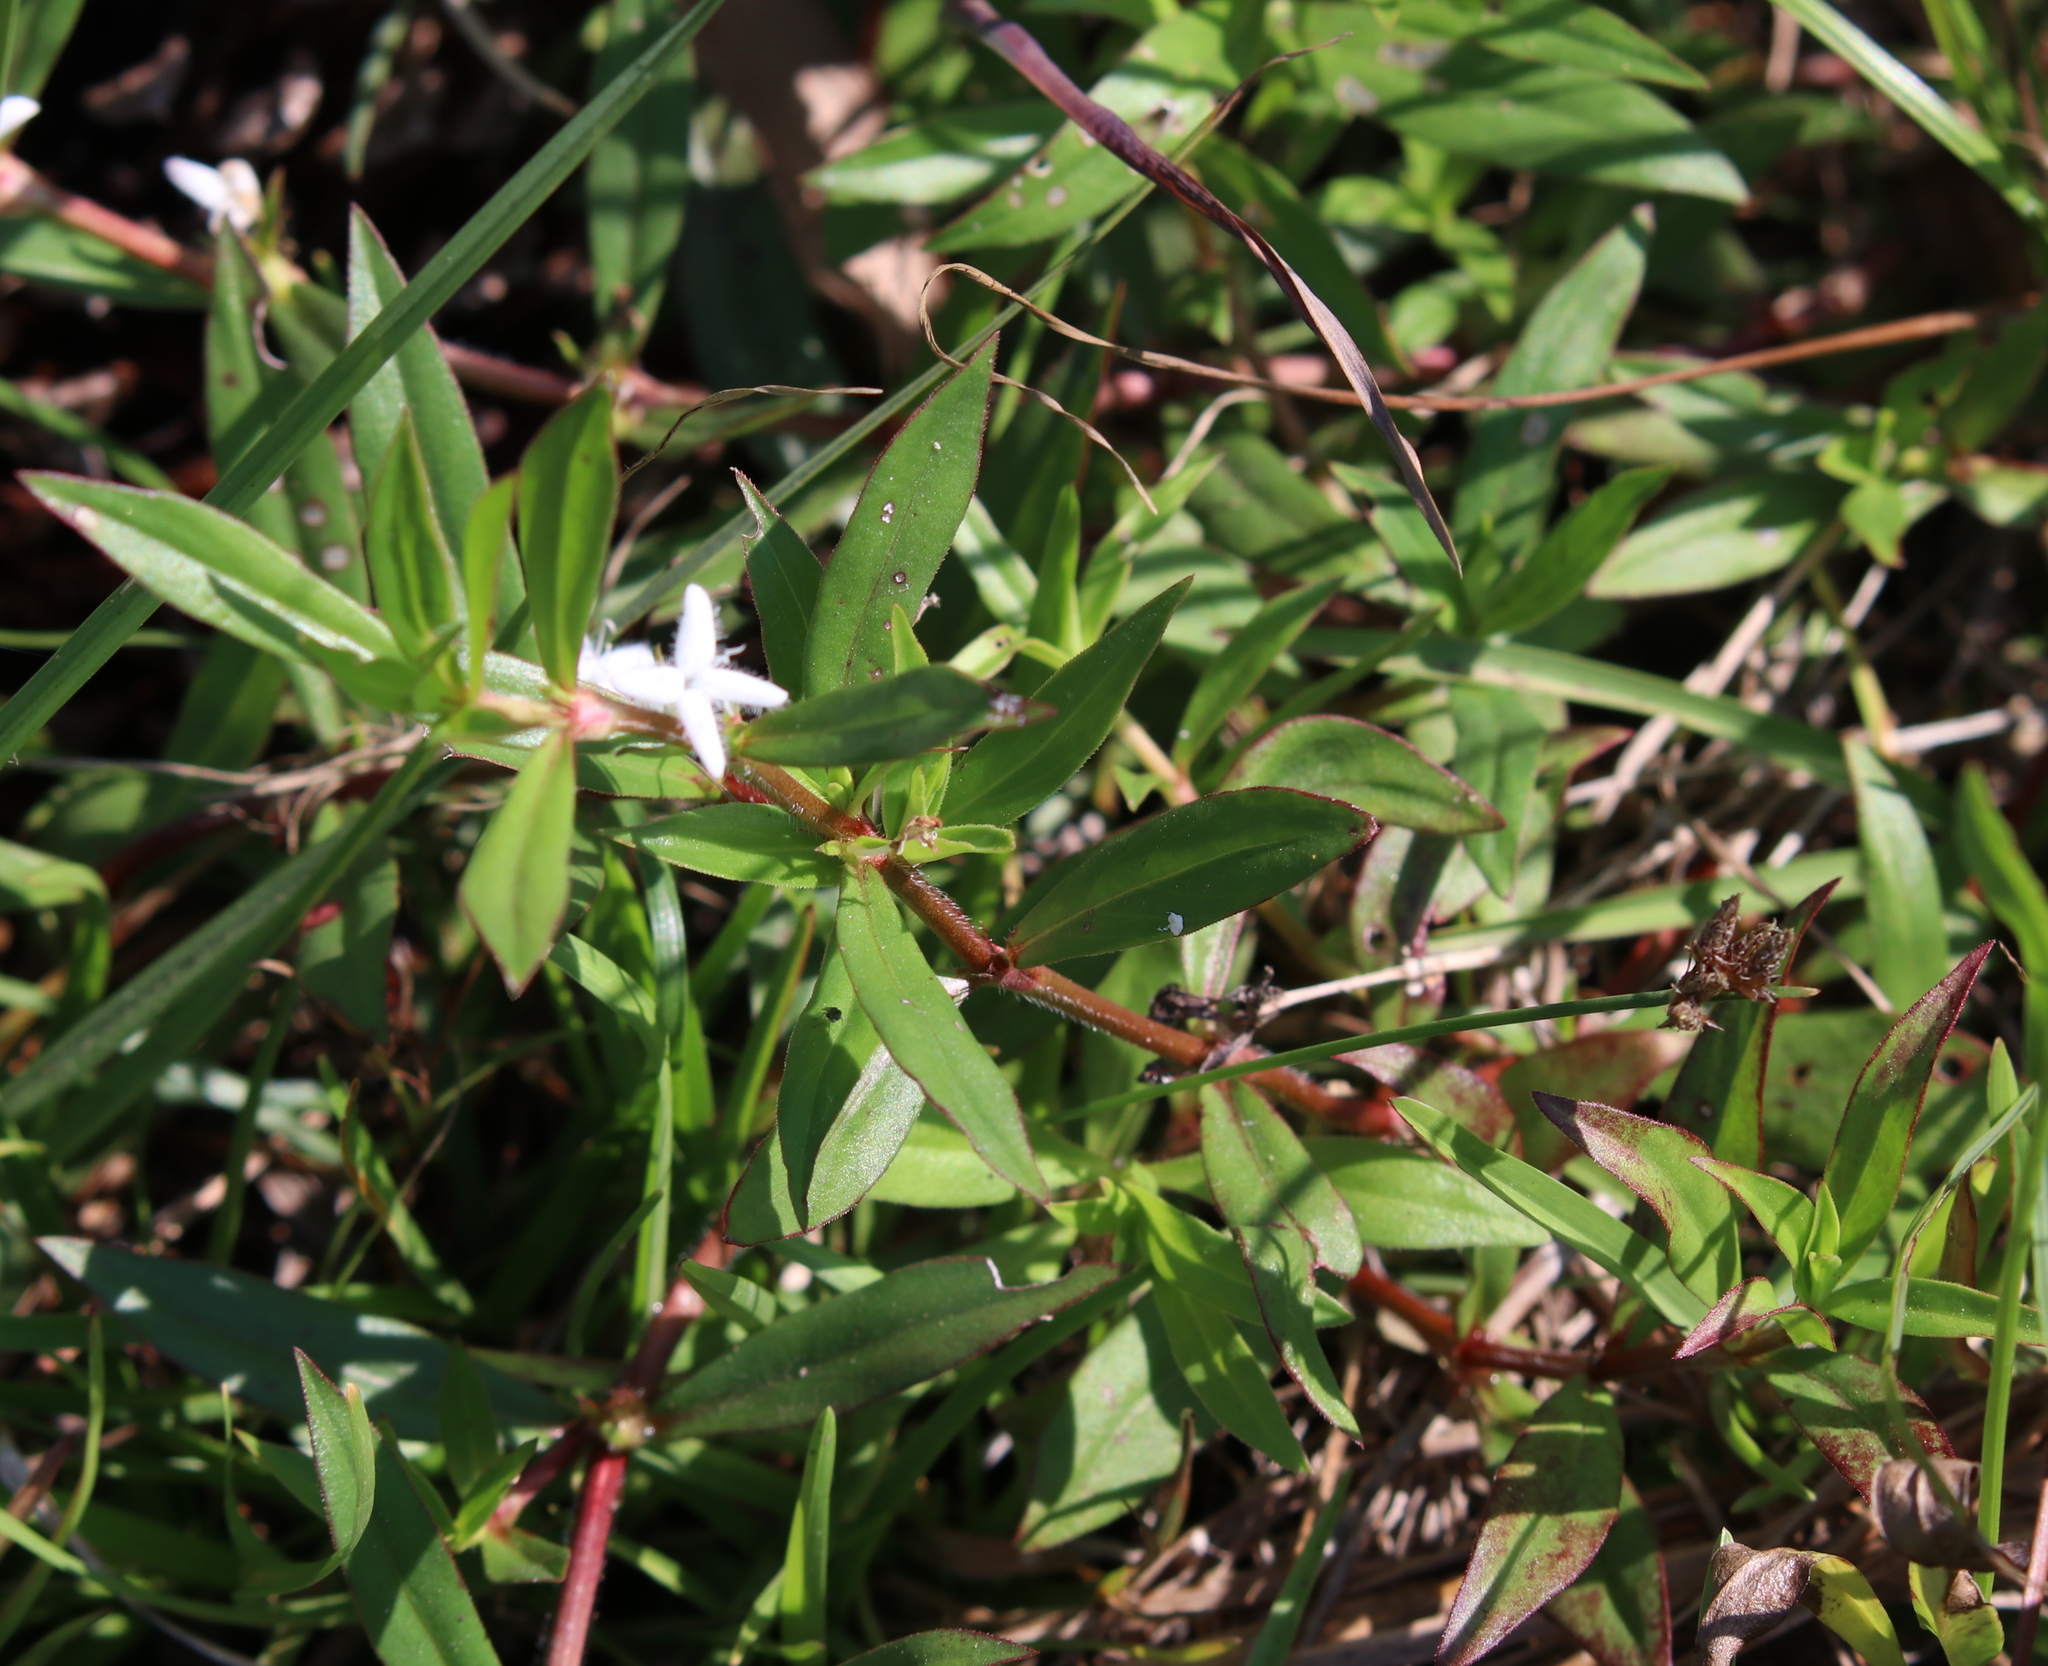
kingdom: Plantae
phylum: Tracheophyta
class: Magnoliopsida
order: Gentianales
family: Rubiaceae
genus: Diodia
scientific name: Diodia virginiana
